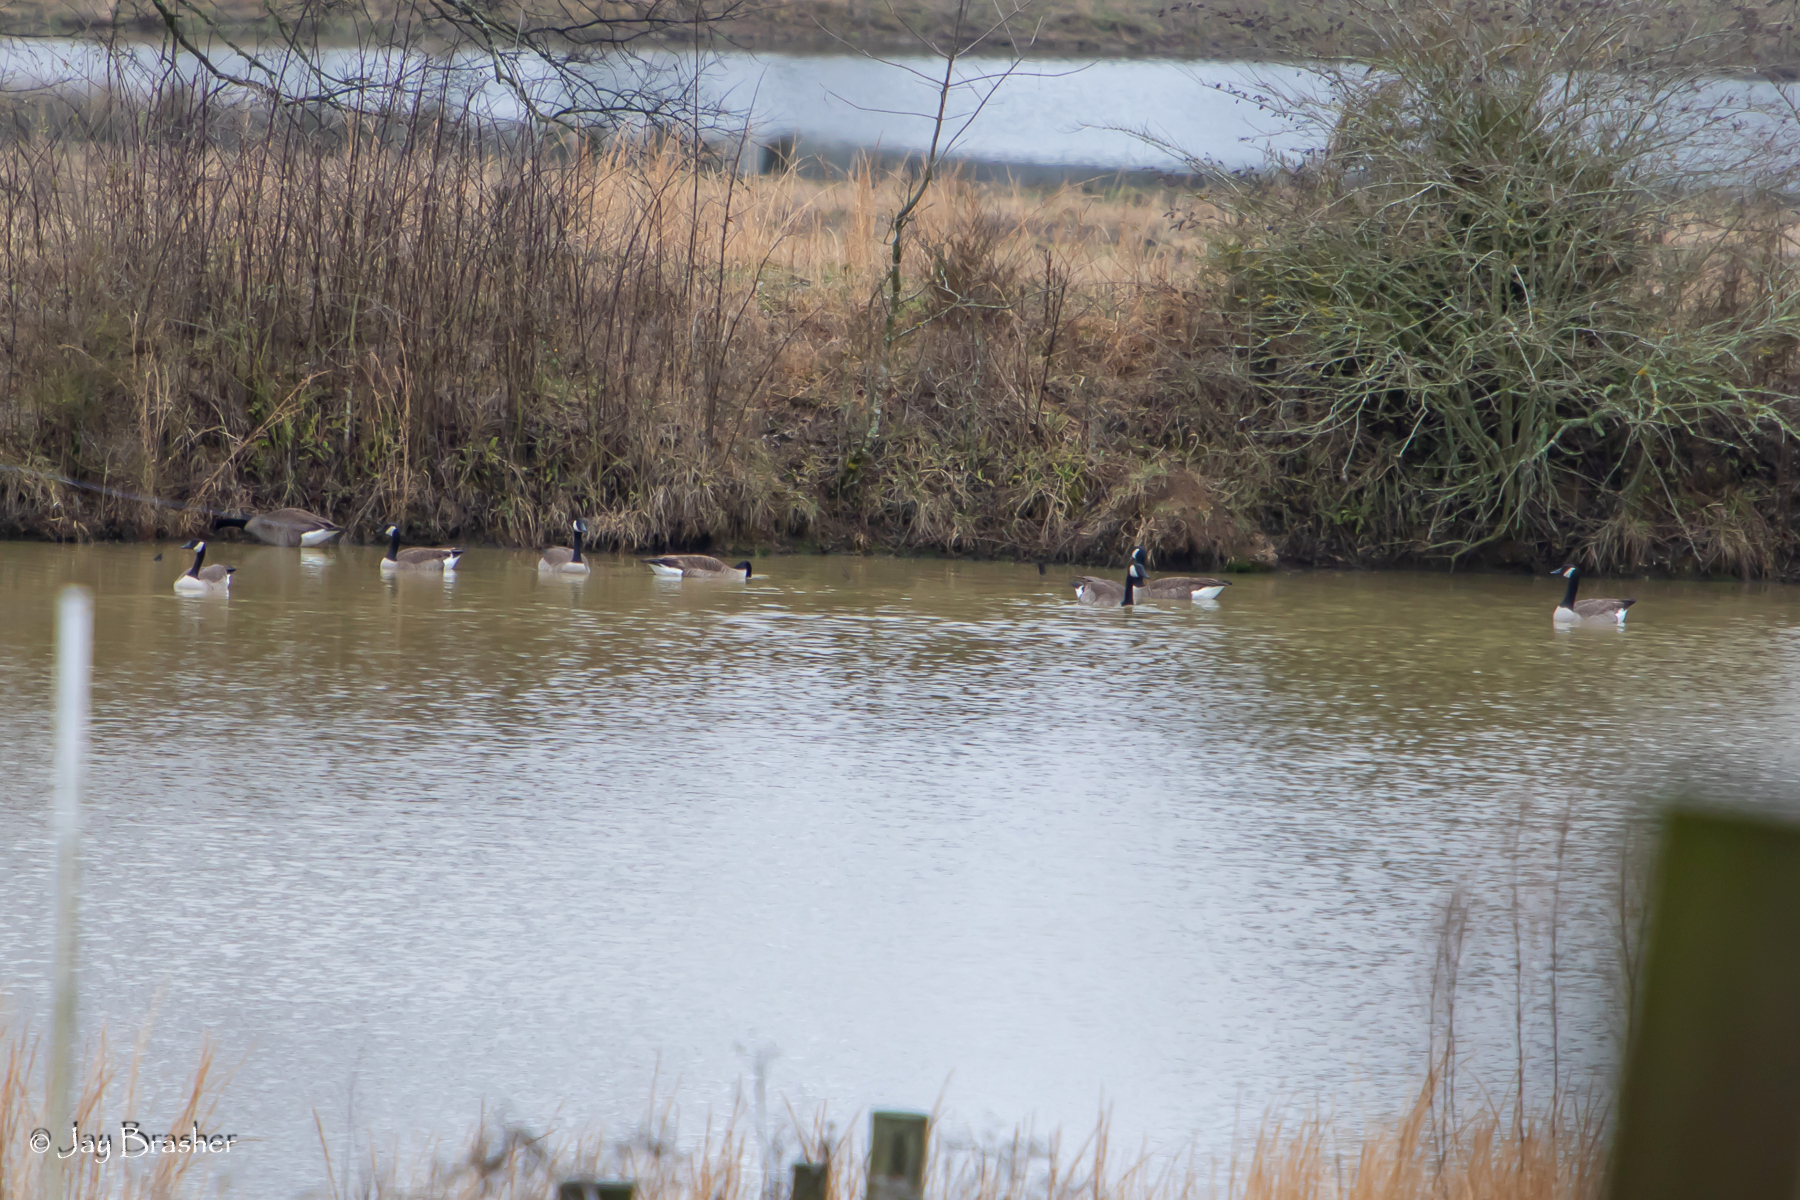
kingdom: Animalia
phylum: Chordata
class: Aves
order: Anseriformes
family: Anatidae
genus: Branta
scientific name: Branta canadensis
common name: Canada goose
